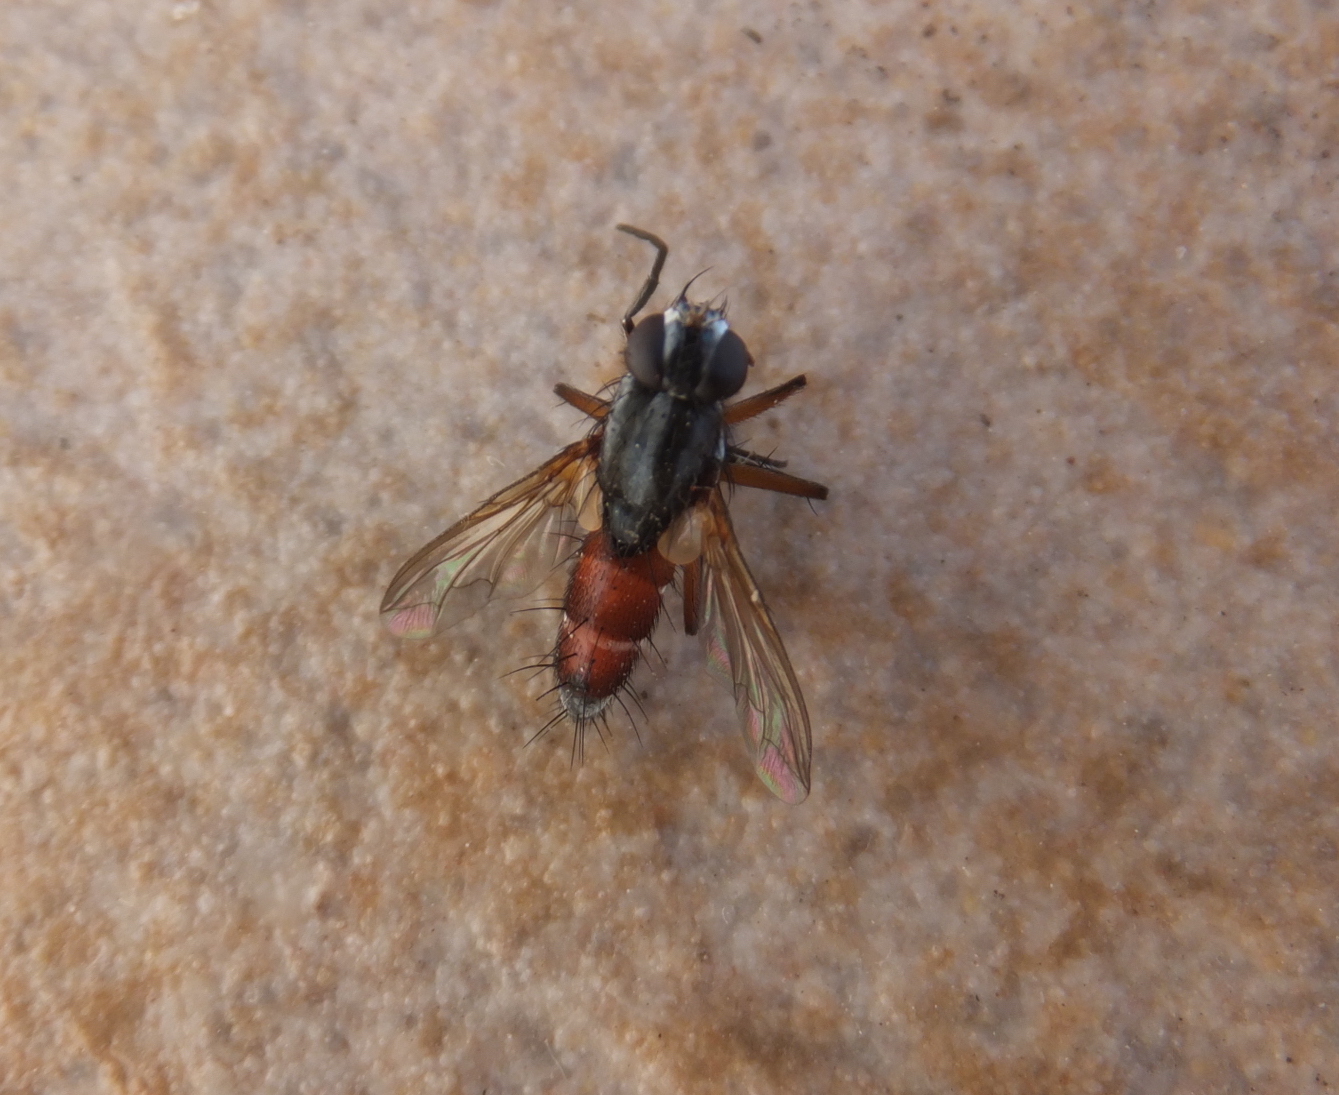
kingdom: Animalia
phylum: Arthropoda
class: Insecta
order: Diptera
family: Tachinidae
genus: Mintho
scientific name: Mintho rufiventris
